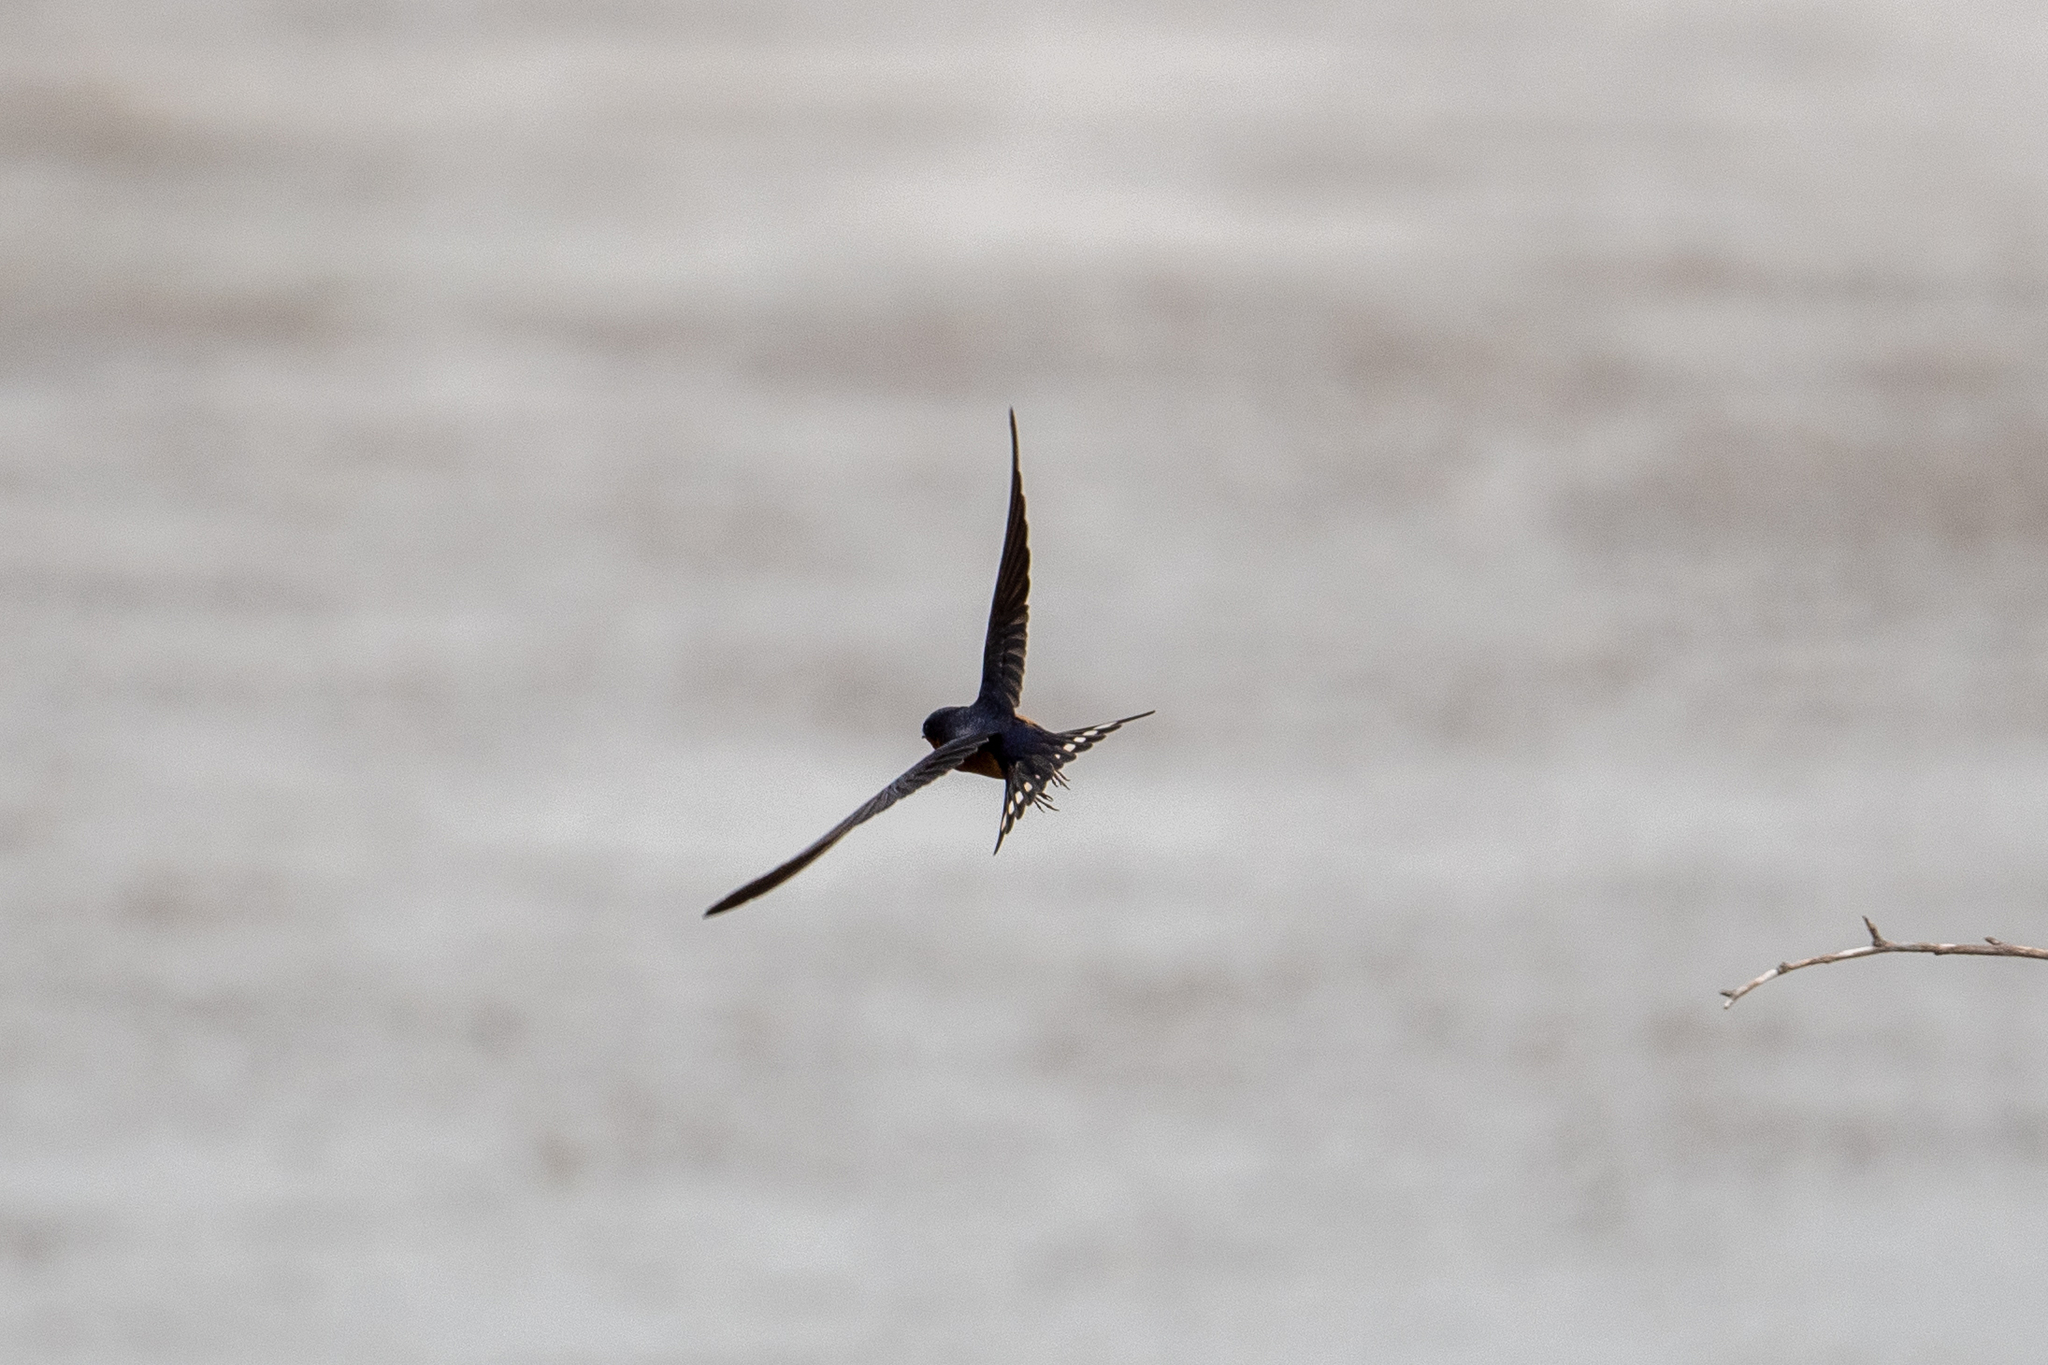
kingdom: Animalia
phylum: Chordata
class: Aves
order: Passeriformes
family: Hirundinidae
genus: Hirundo
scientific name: Hirundo rustica
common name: Barn swallow
